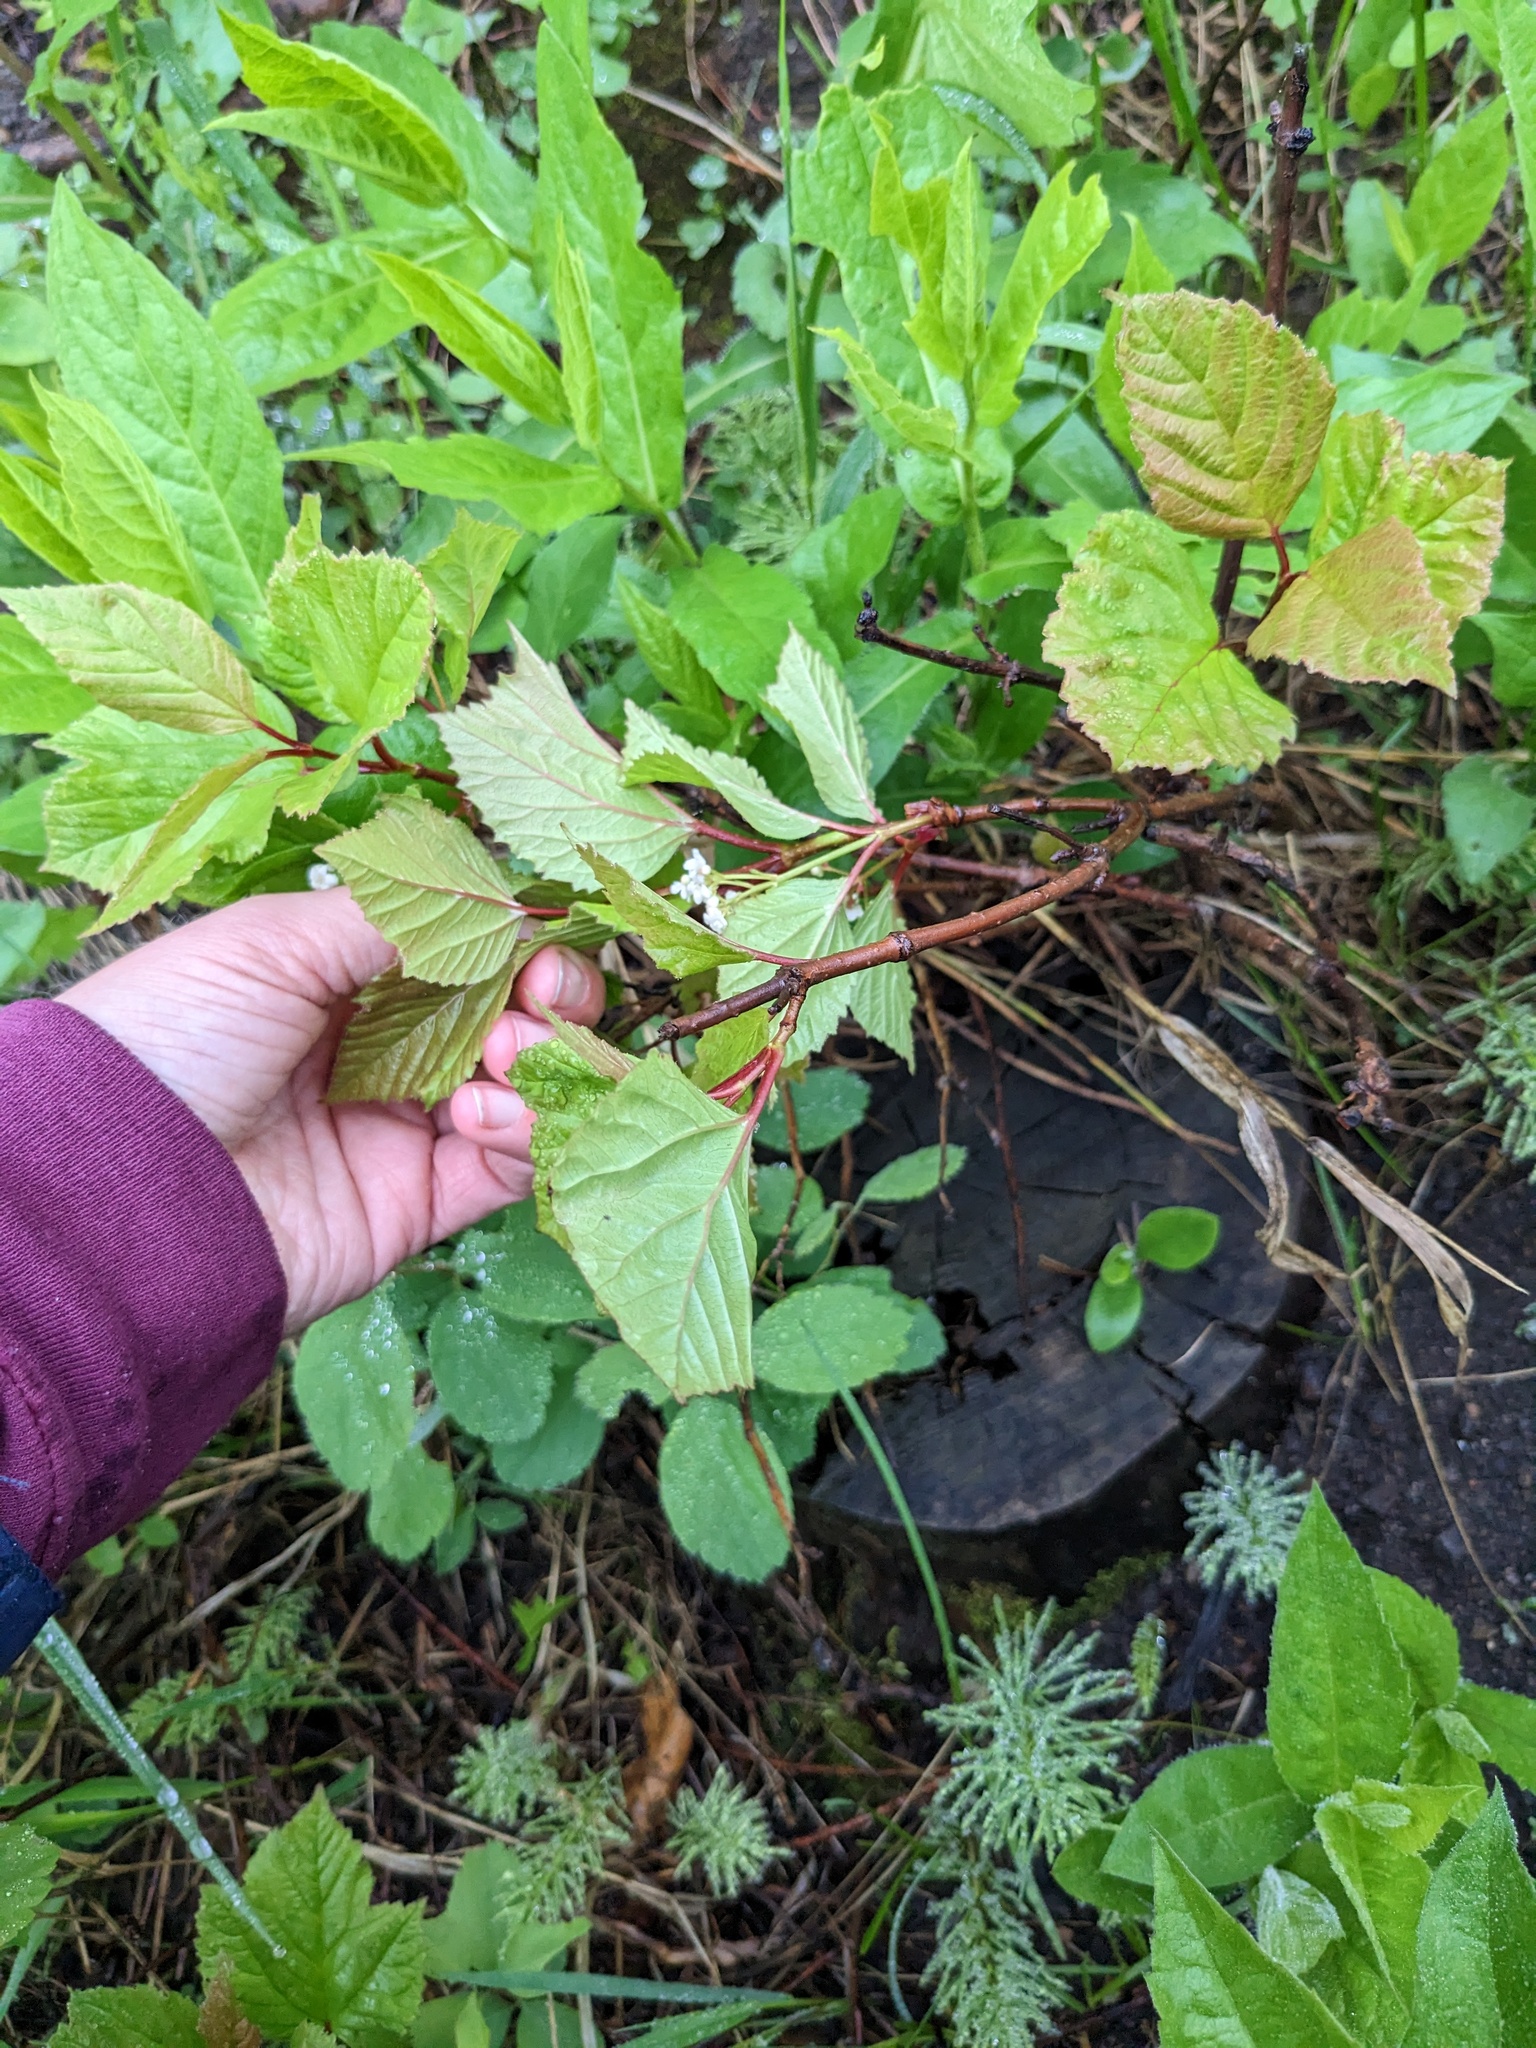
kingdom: Plantae
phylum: Tracheophyta
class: Magnoliopsida
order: Dipsacales
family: Viburnaceae
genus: Viburnum
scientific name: Viburnum edule
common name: Mooseberry
